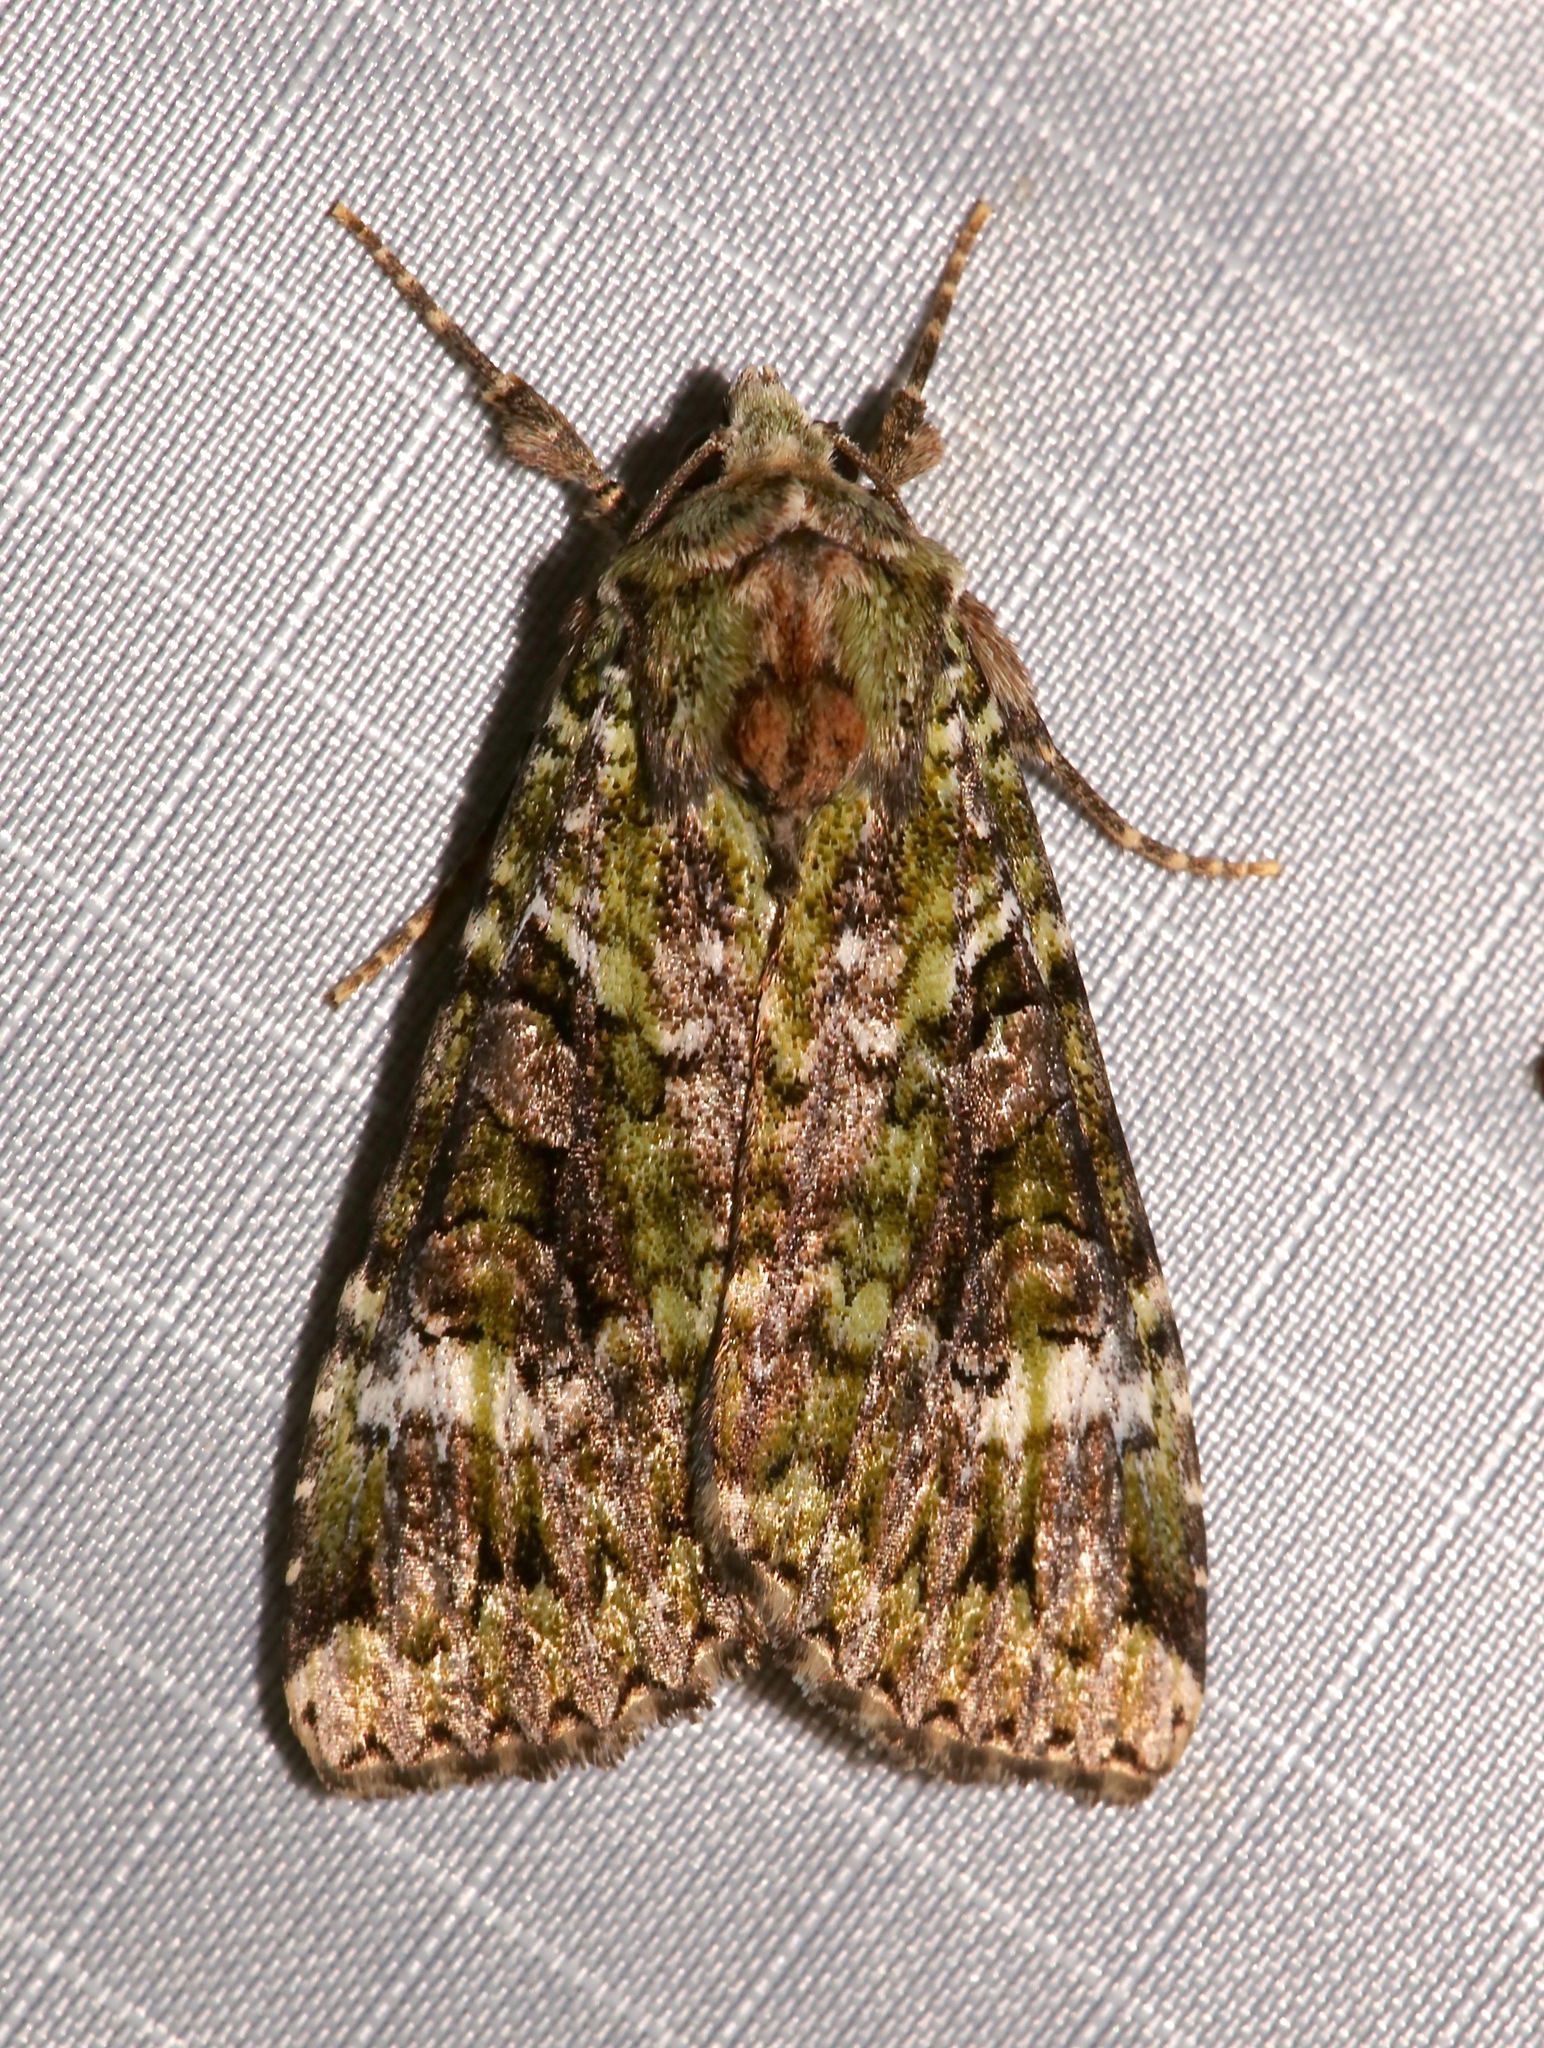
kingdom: Animalia
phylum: Arthropoda
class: Insecta
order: Lepidoptera
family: Noctuidae
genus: Anaplectoides
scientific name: Anaplectoides prasina
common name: Green arches
